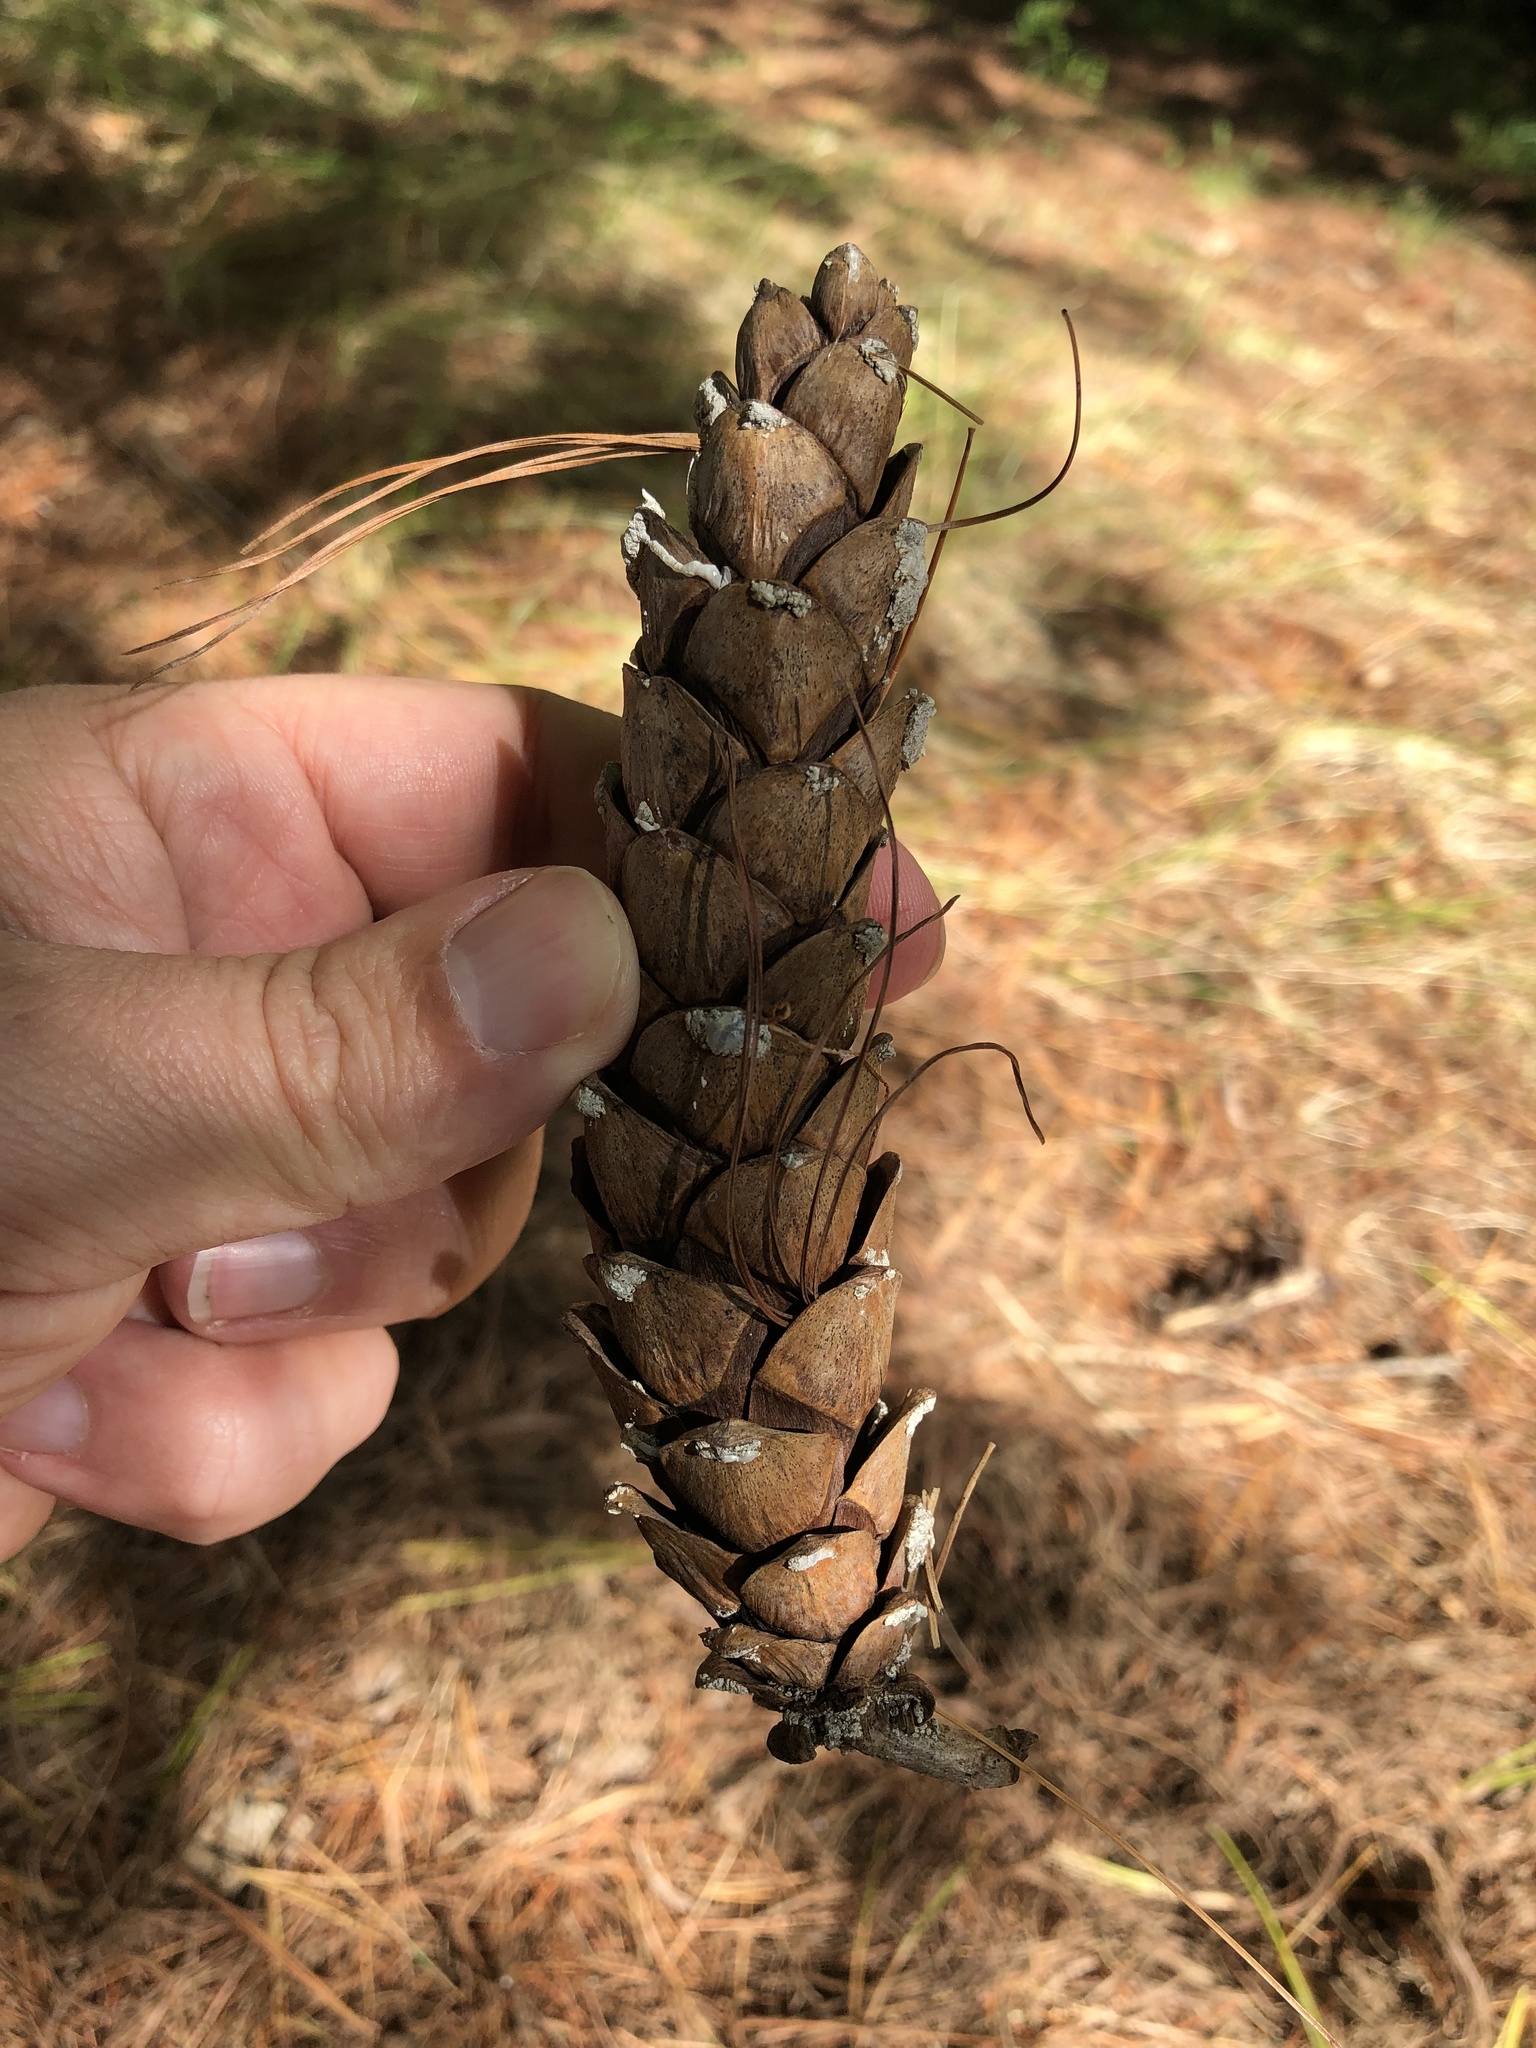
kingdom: Plantae
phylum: Tracheophyta
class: Pinopsida
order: Pinales
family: Pinaceae
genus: Pinus
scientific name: Pinus strobus
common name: Weymouth pine
